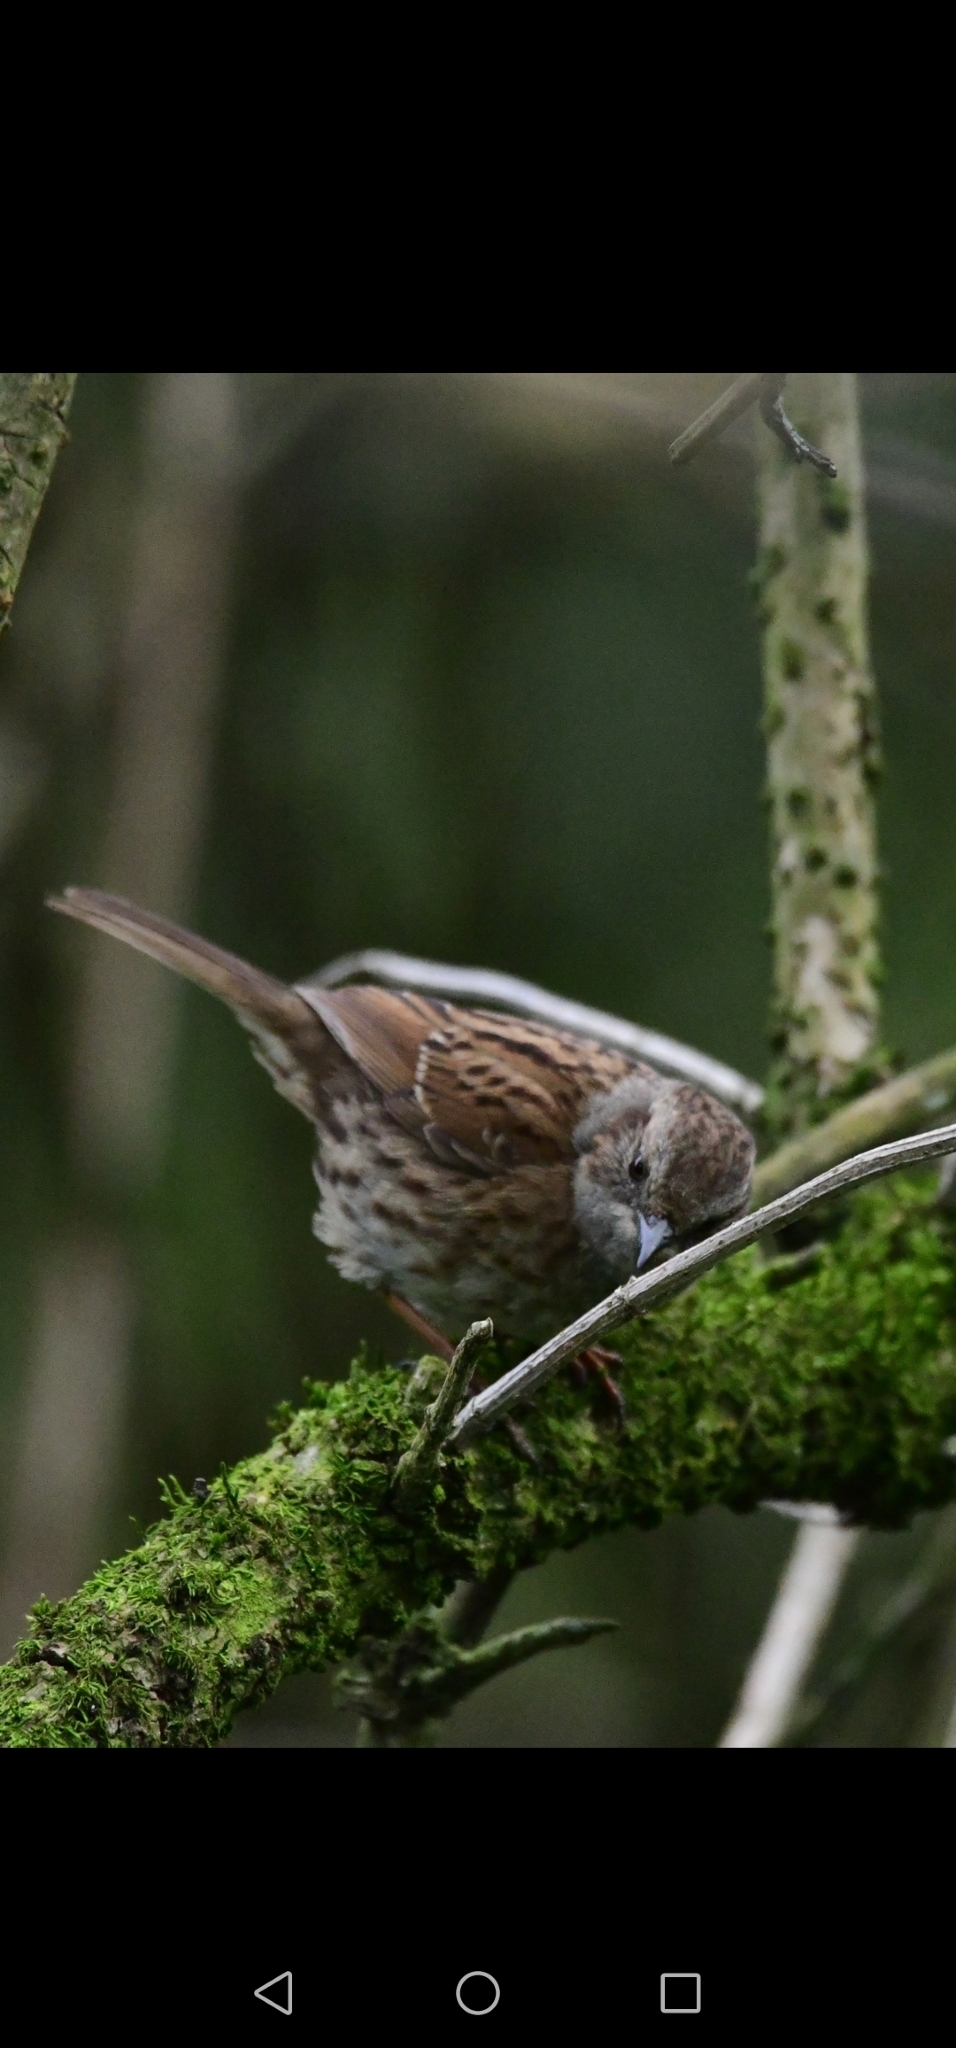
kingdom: Animalia
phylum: Chordata
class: Aves
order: Passeriformes
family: Prunellidae
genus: Prunella
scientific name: Prunella modularis
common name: Dunnock
